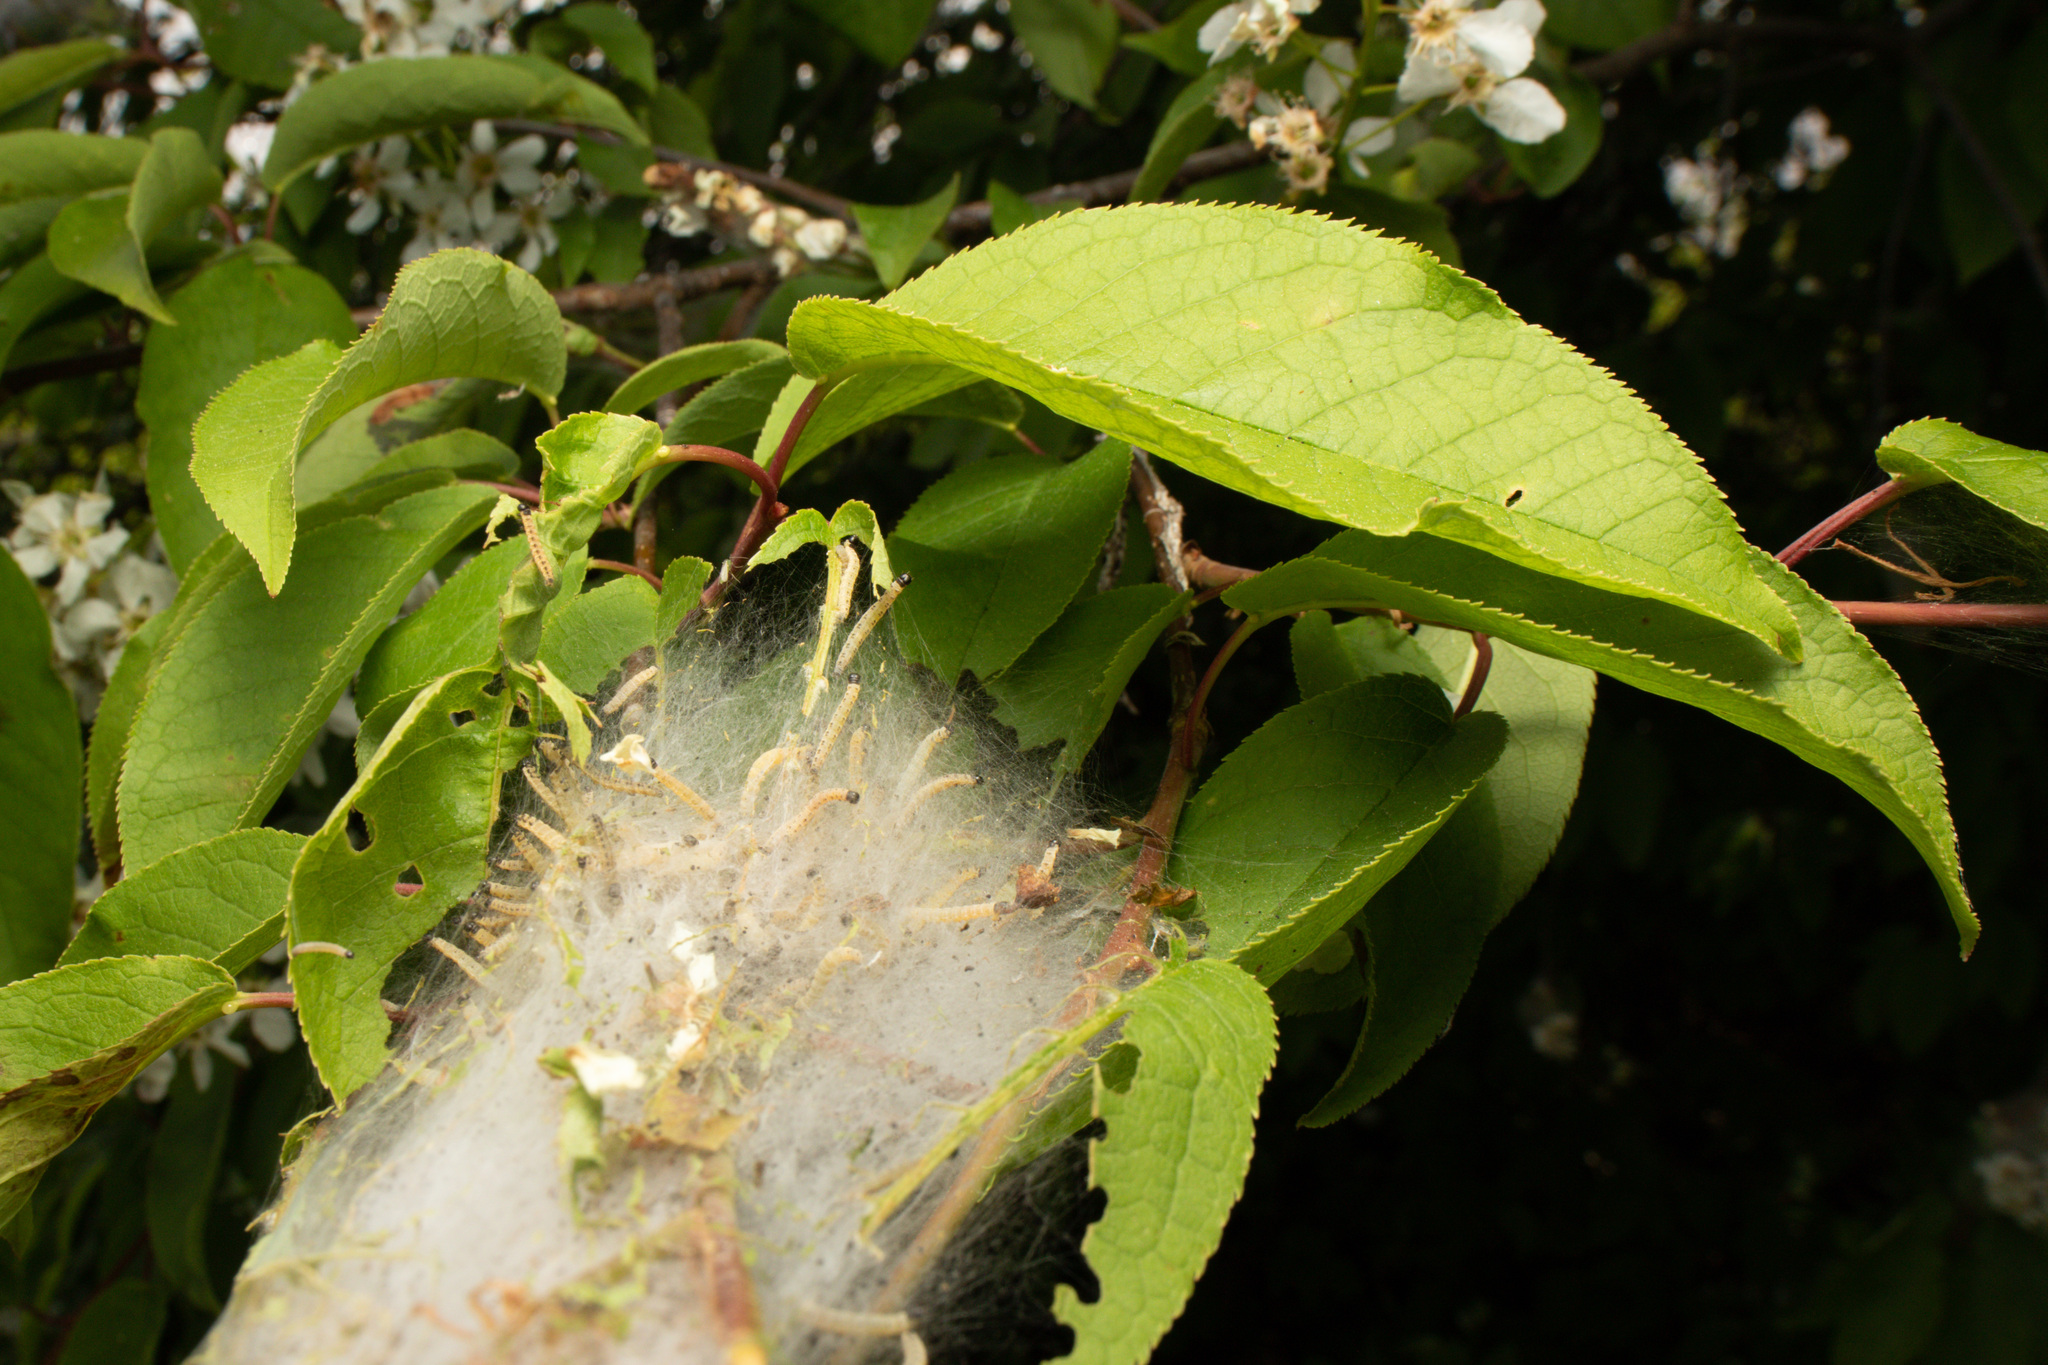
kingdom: Animalia
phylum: Arthropoda
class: Insecta
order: Lepidoptera
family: Yponomeutidae
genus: Yponomeuta
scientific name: Yponomeuta evonymella
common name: Bird-cherry ermine
